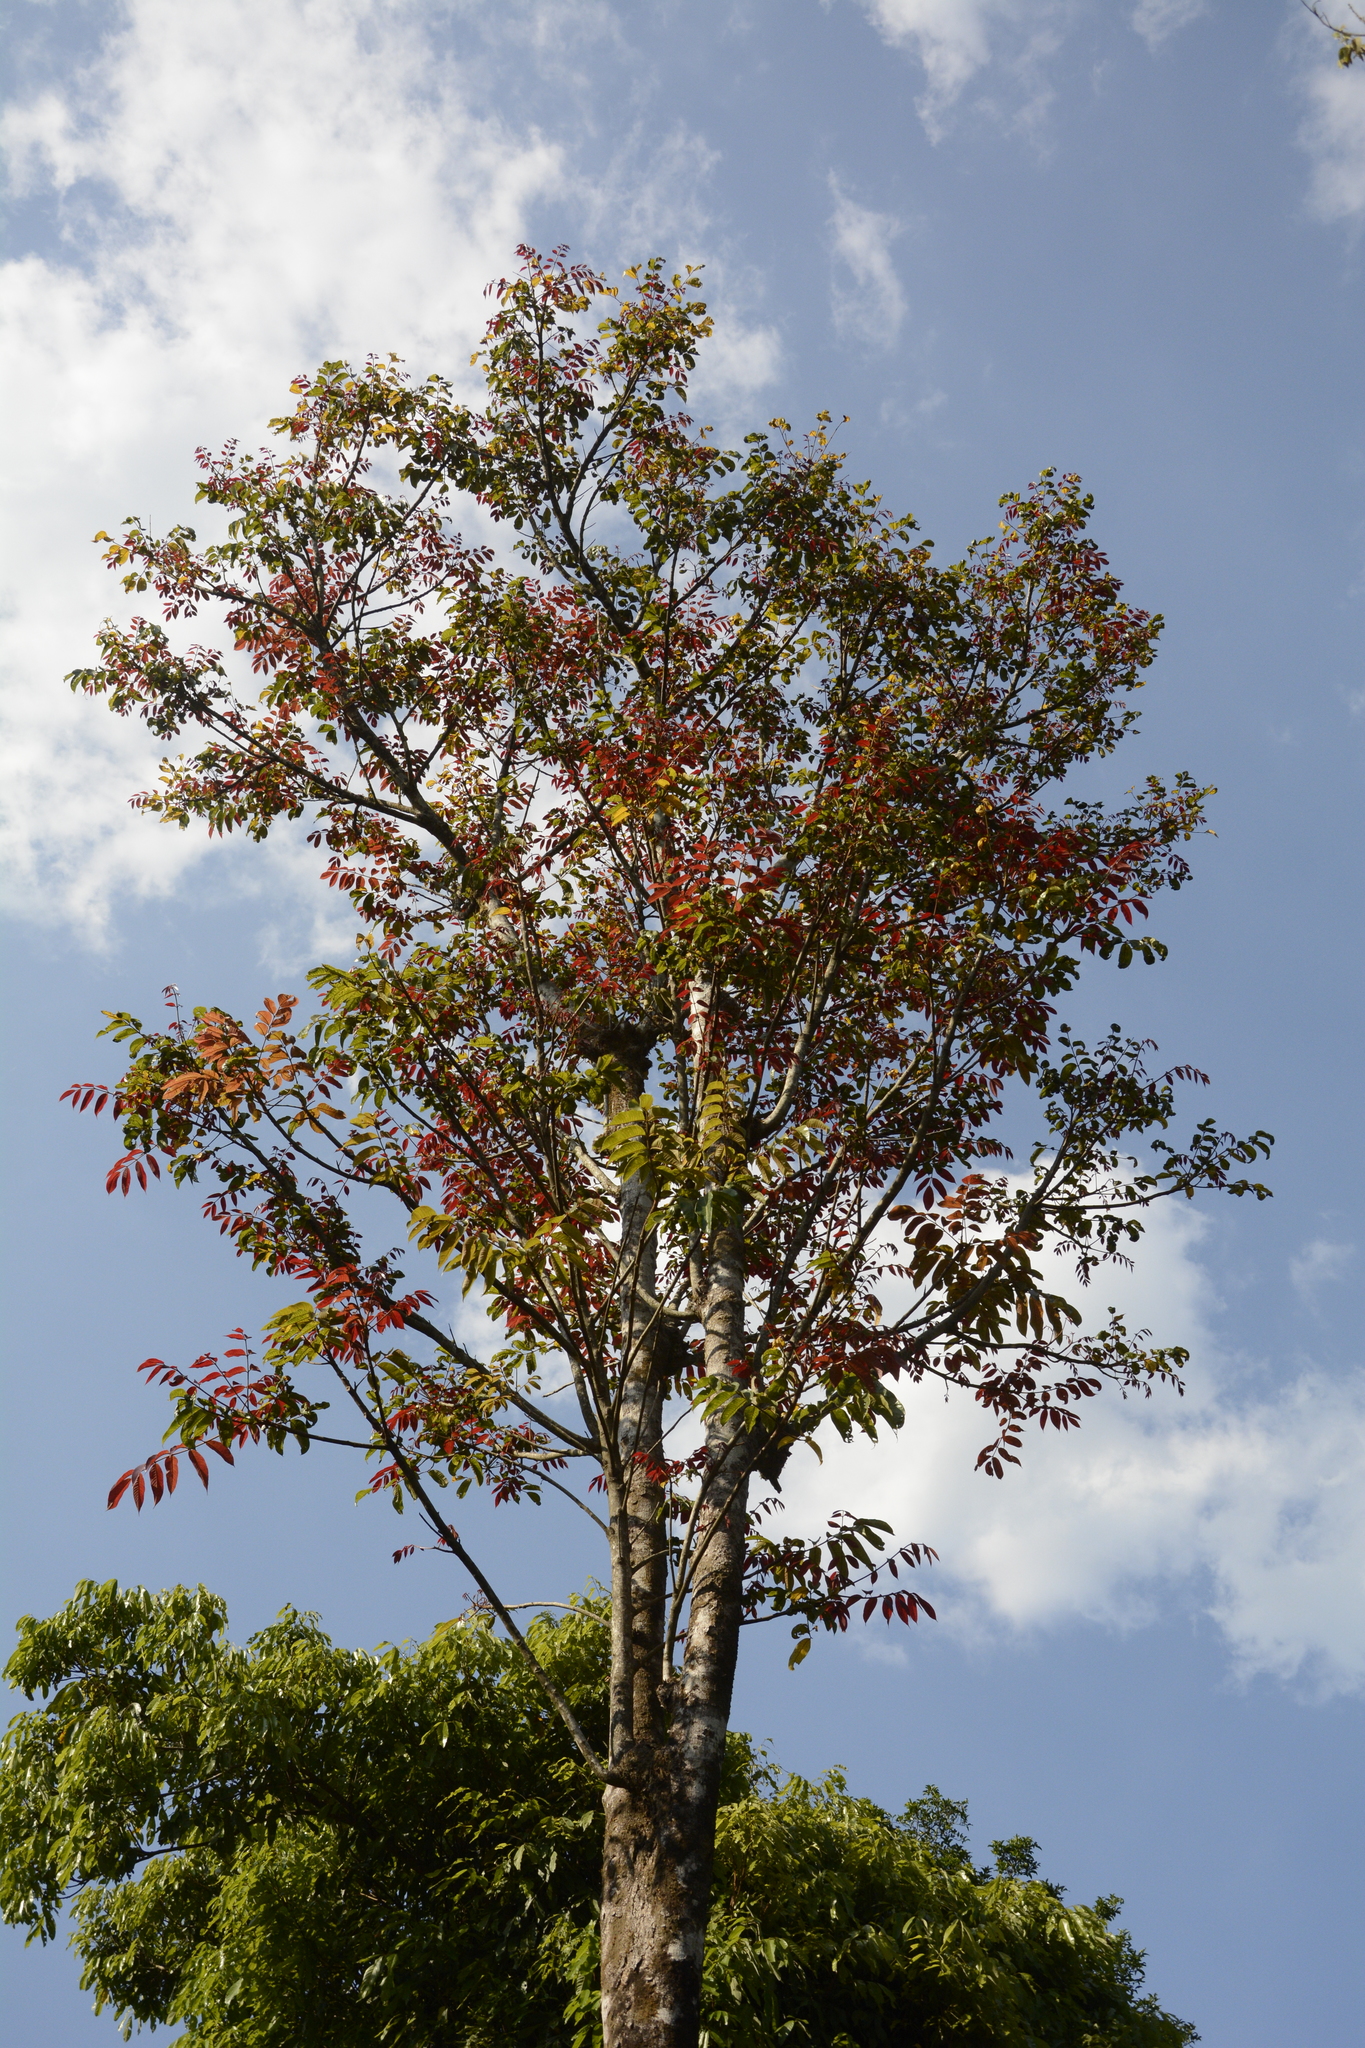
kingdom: Plantae
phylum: Tracheophyta
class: Magnoliopsida
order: Sapindales
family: Burseraceae
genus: Canarium
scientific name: Canarium strictum
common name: Indian white-mahogany
